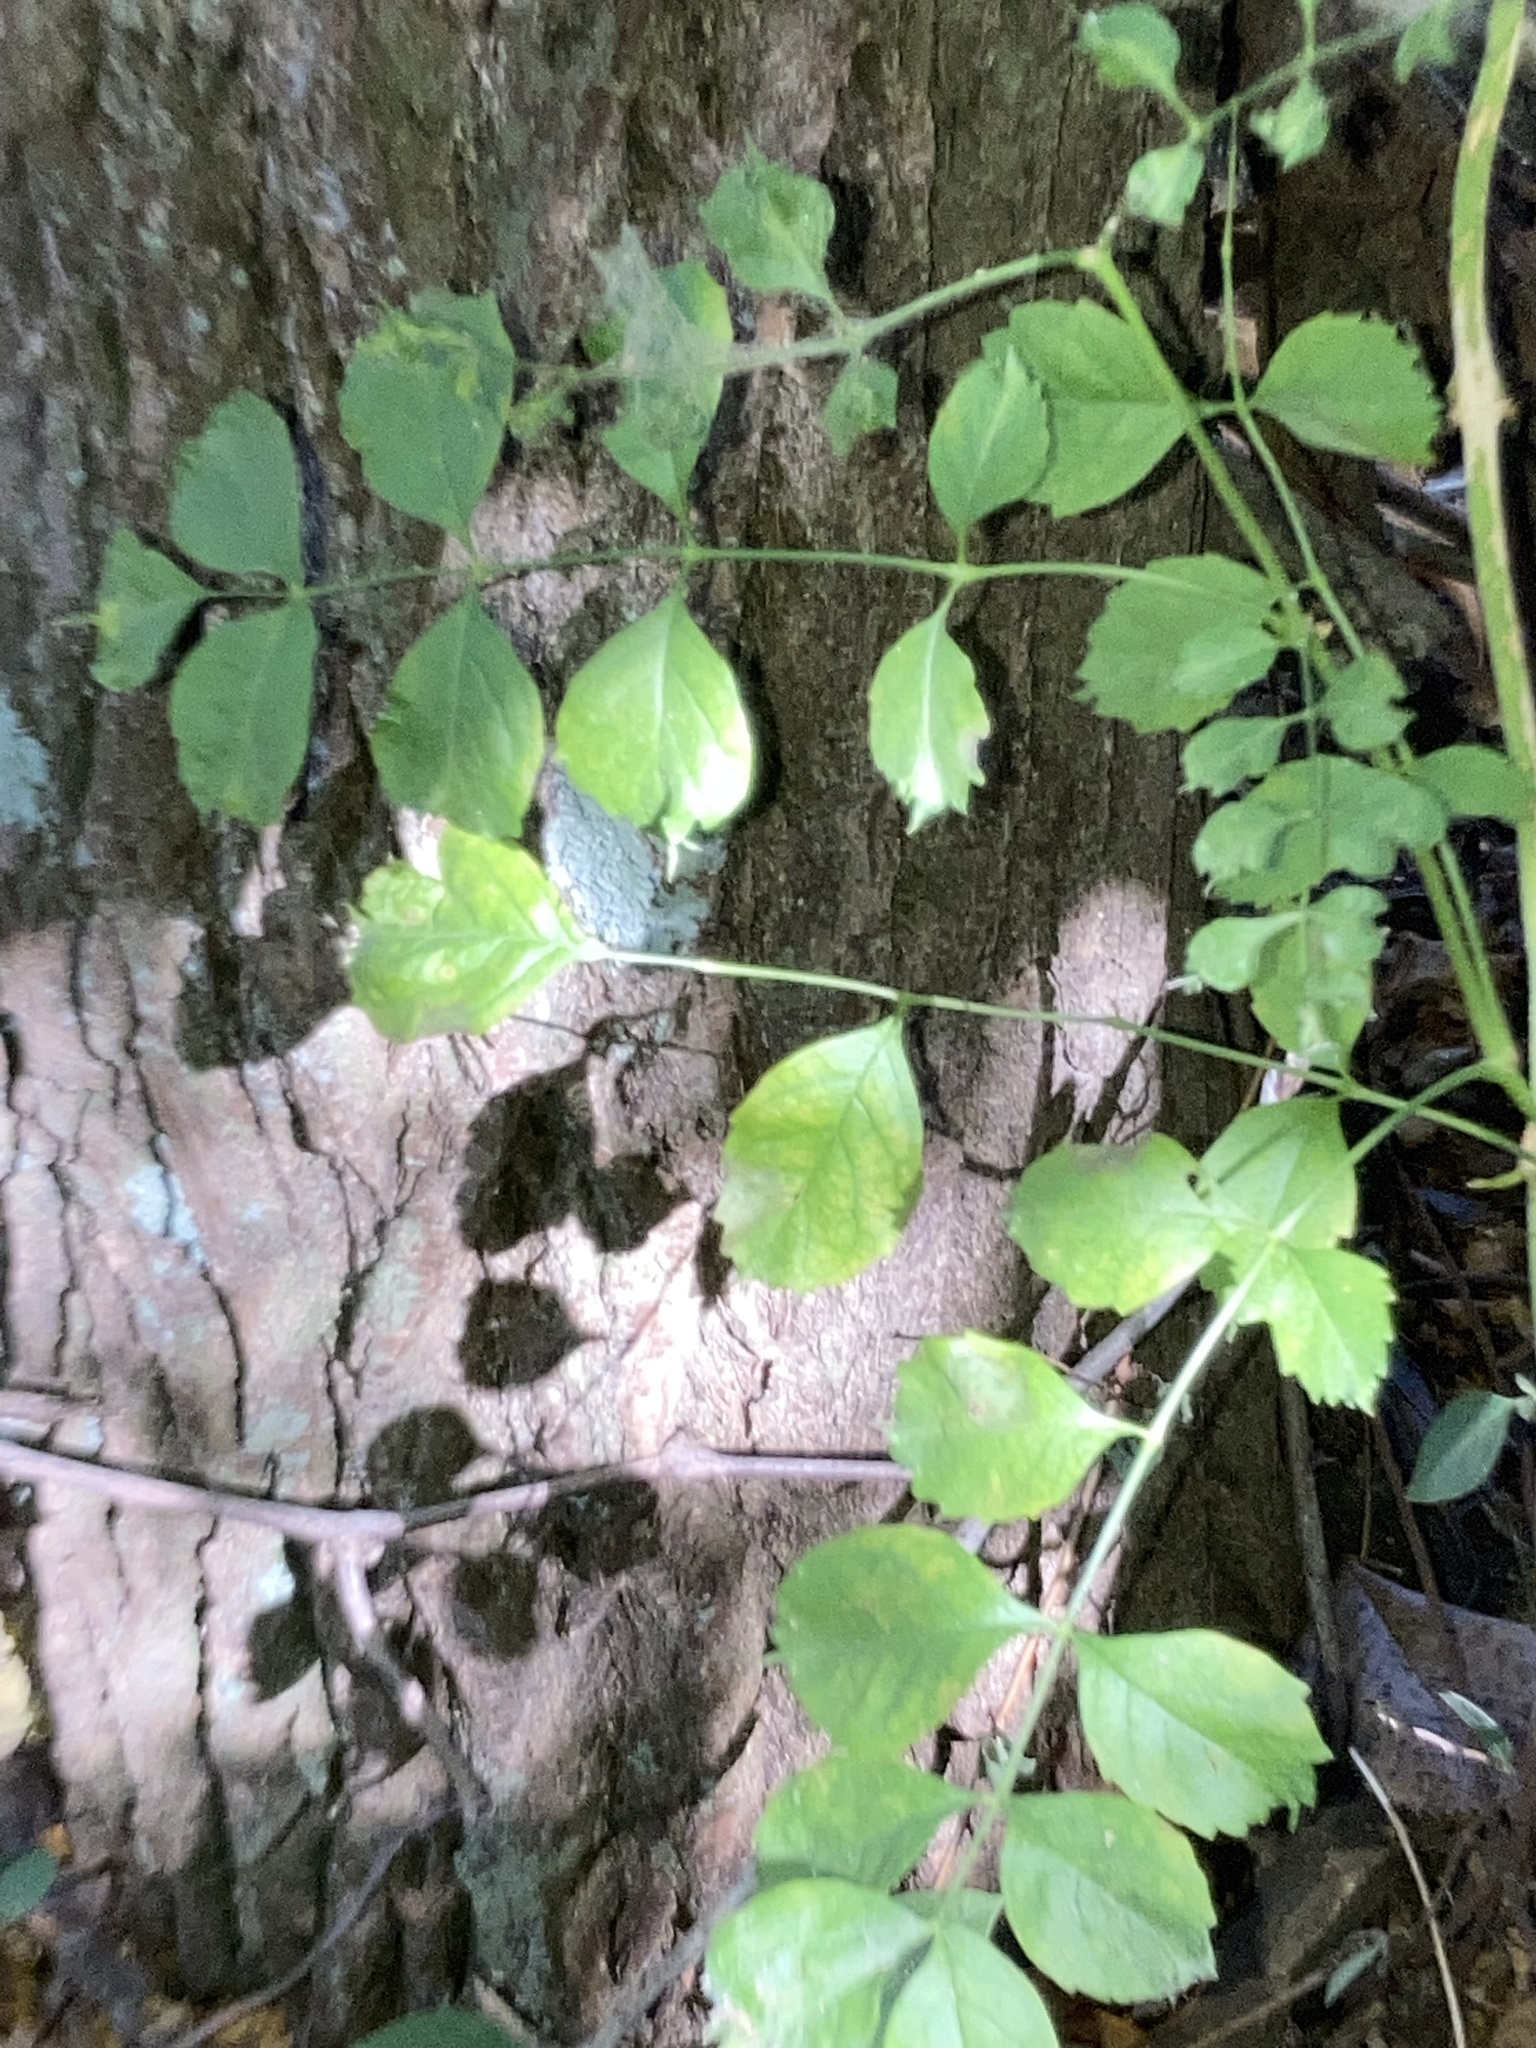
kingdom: Plantae
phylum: Tracheophyta
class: Magnoliopsida
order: Lamiales
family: Bignoniaceae
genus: Campsis
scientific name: Campsis radicans
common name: Trumpet-creeper
